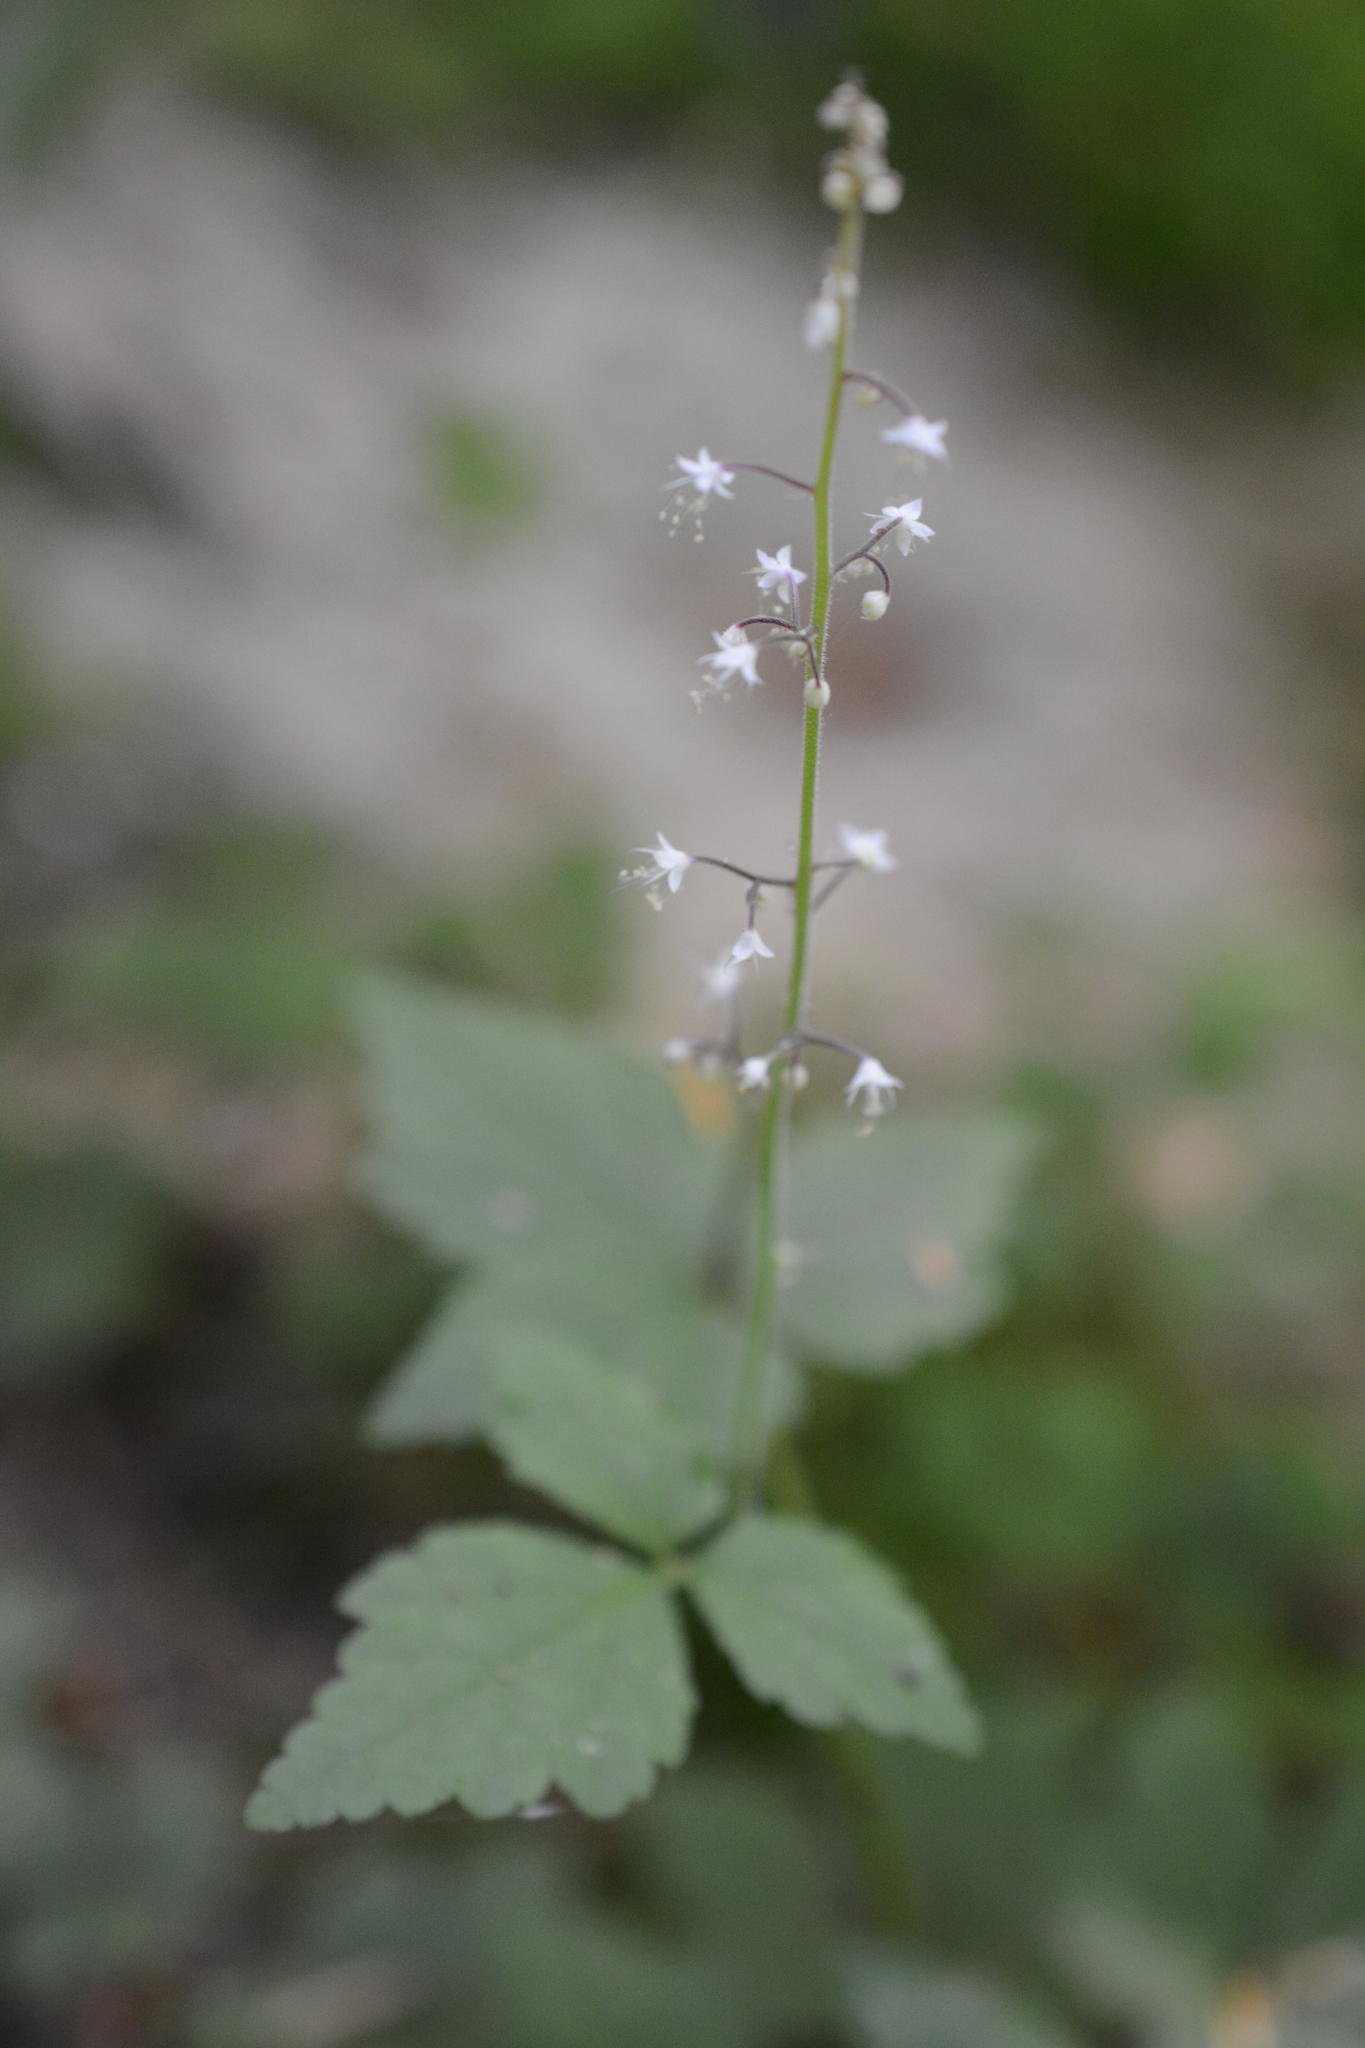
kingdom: Plantae
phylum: Tracheophyta
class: Magnoliopsida
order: Saxifragales
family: Saxifragaceae
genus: Tiarella
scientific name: Tiarella trifoliata
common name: Sugar-scoop
